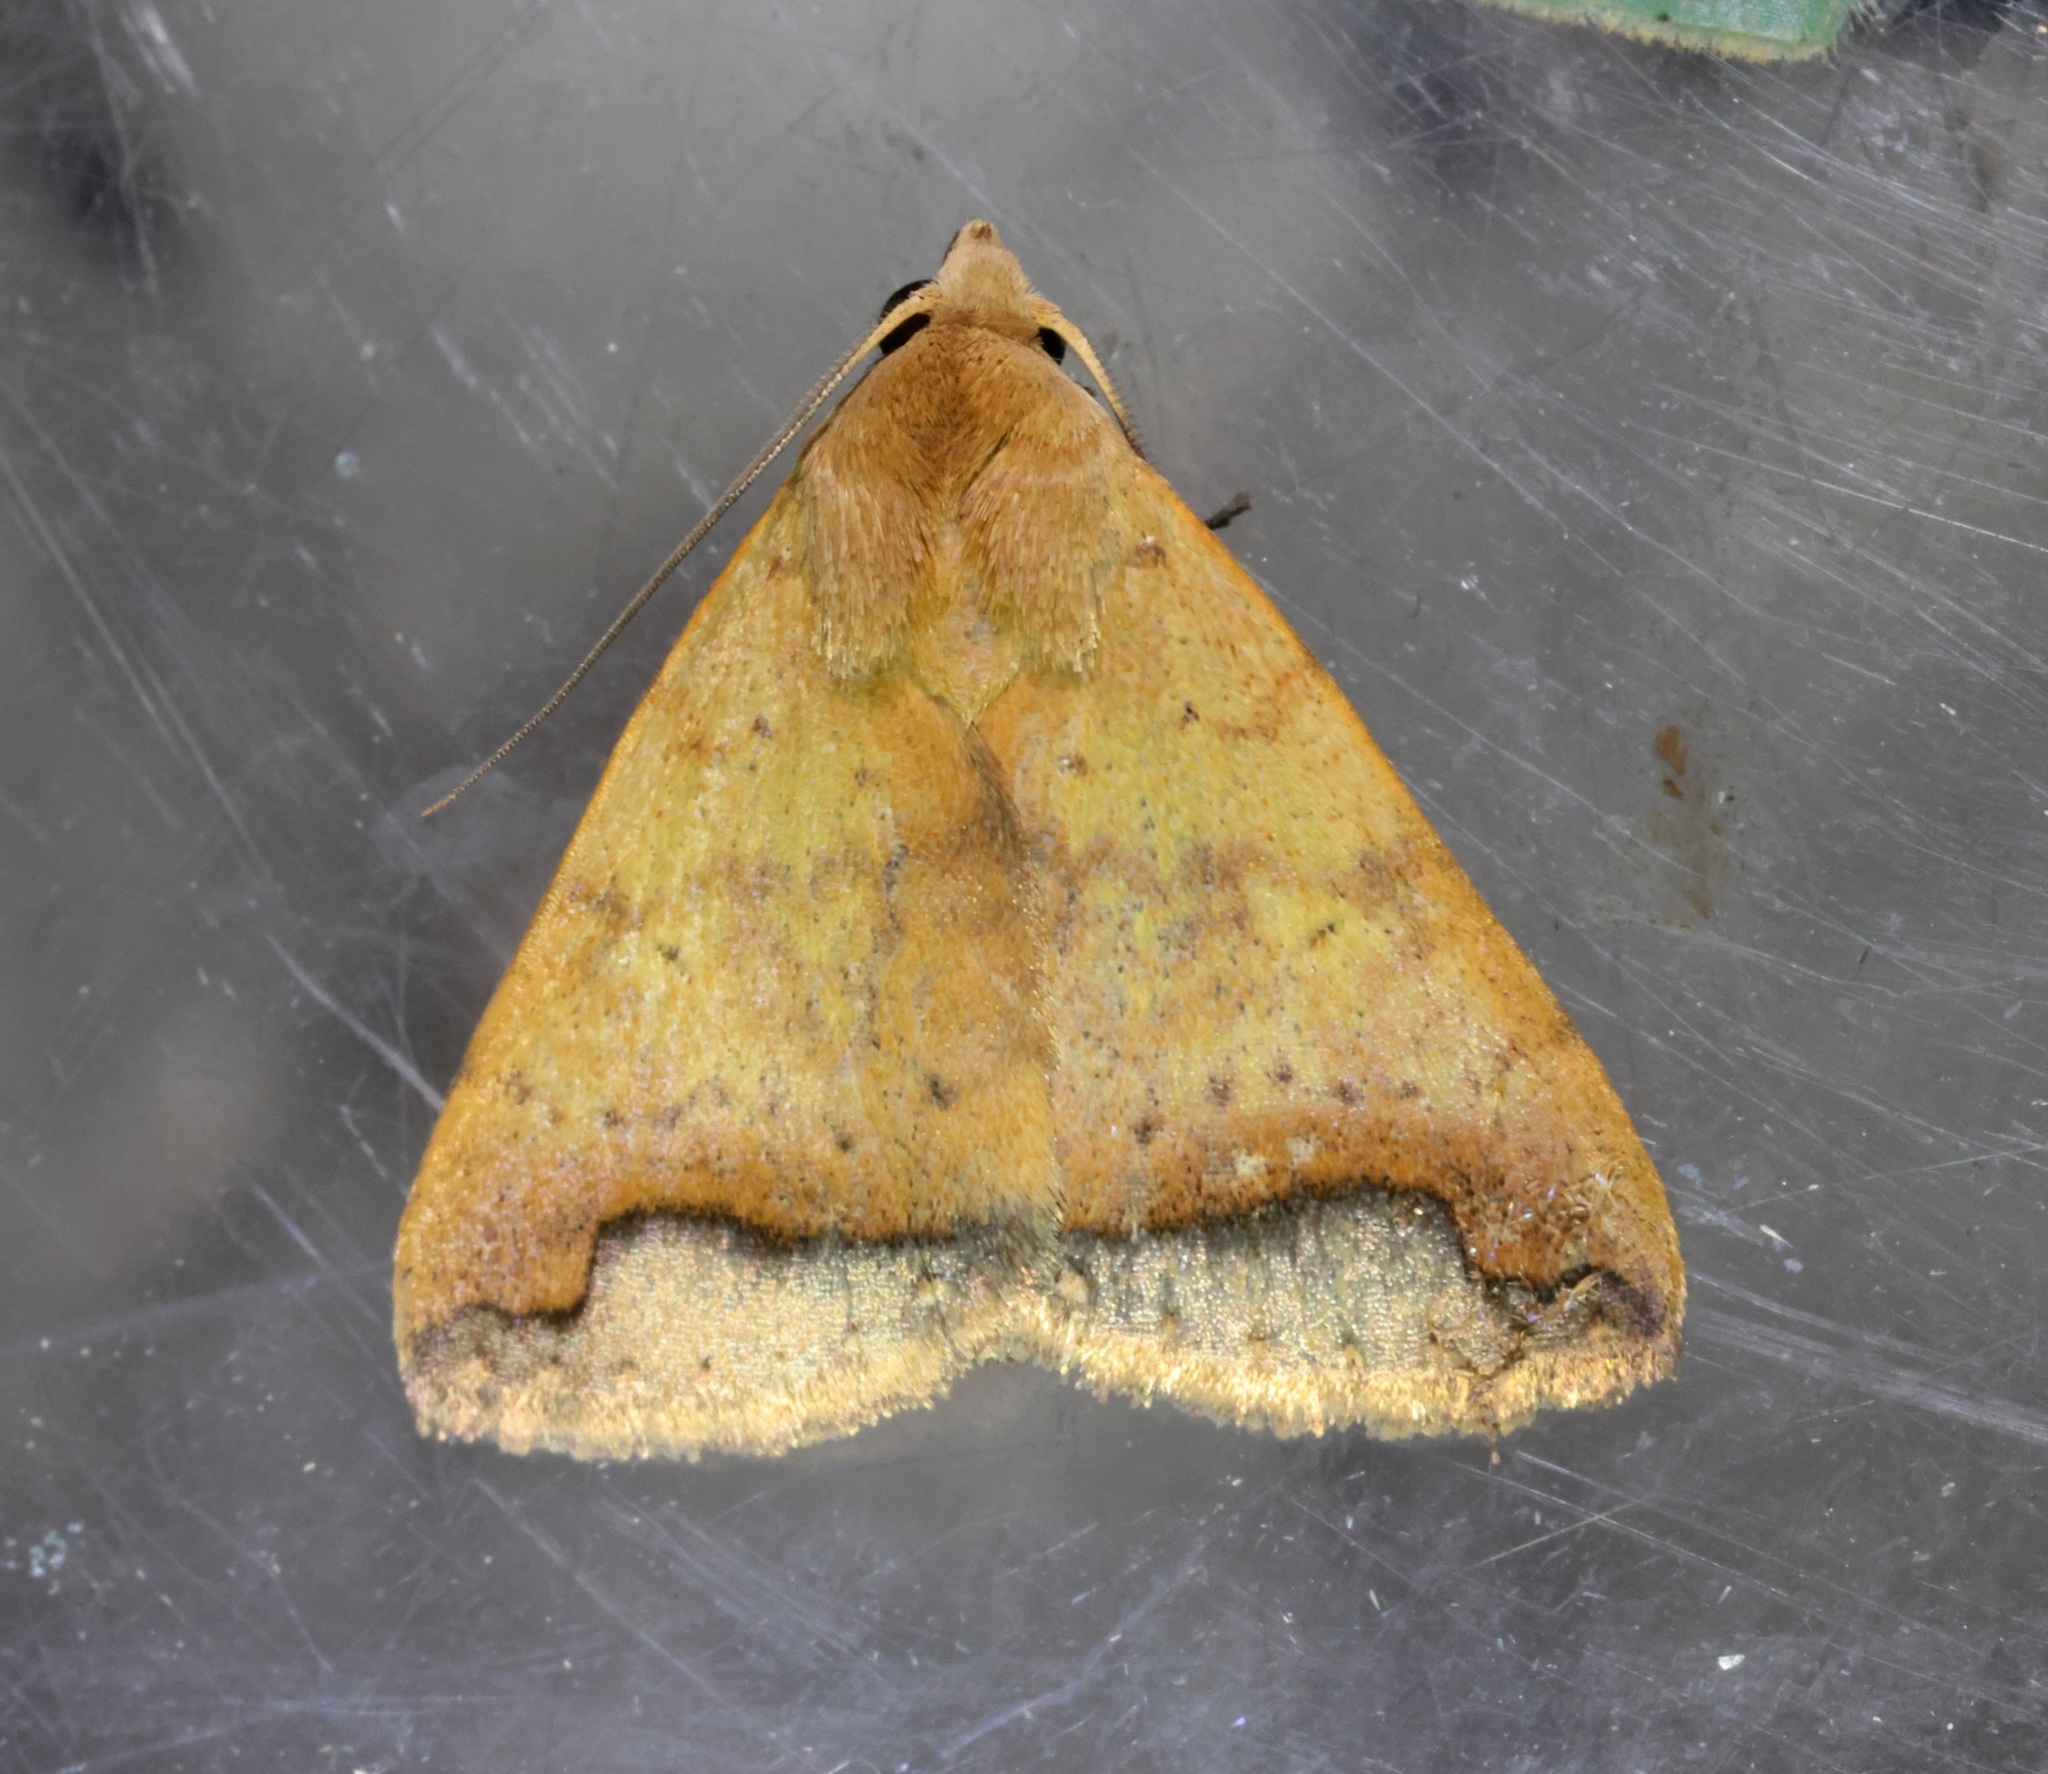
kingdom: Animalia
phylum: Arthropoda
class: Insecta
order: Lepidoptera
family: Erebidae
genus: Bocula
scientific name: Bocula diffisa
